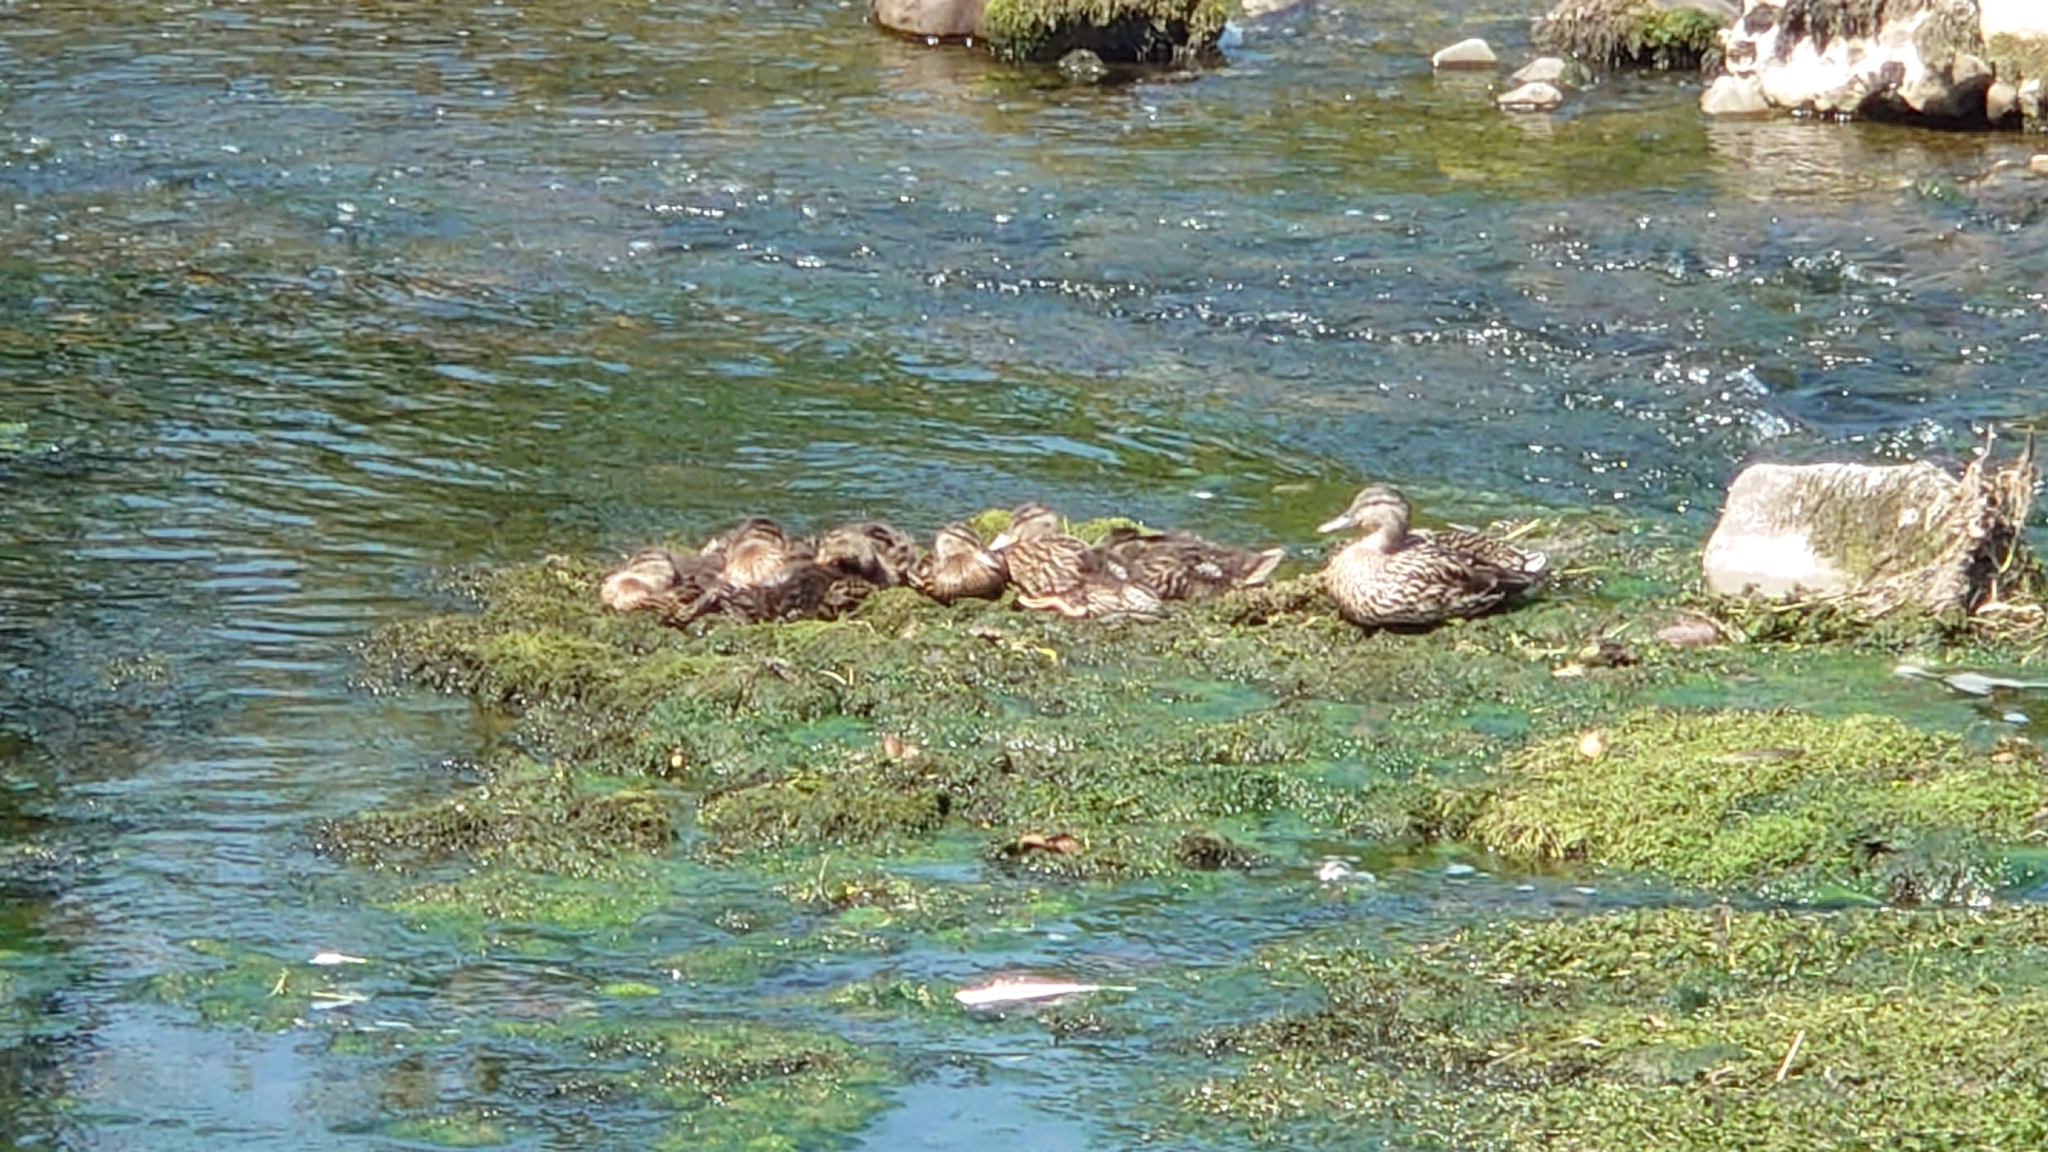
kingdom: Animalia
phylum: Chordata
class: Aves
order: Anseriformes
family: Anatidae
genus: Anas
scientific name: Anas platyrhynchos
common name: Mallard
